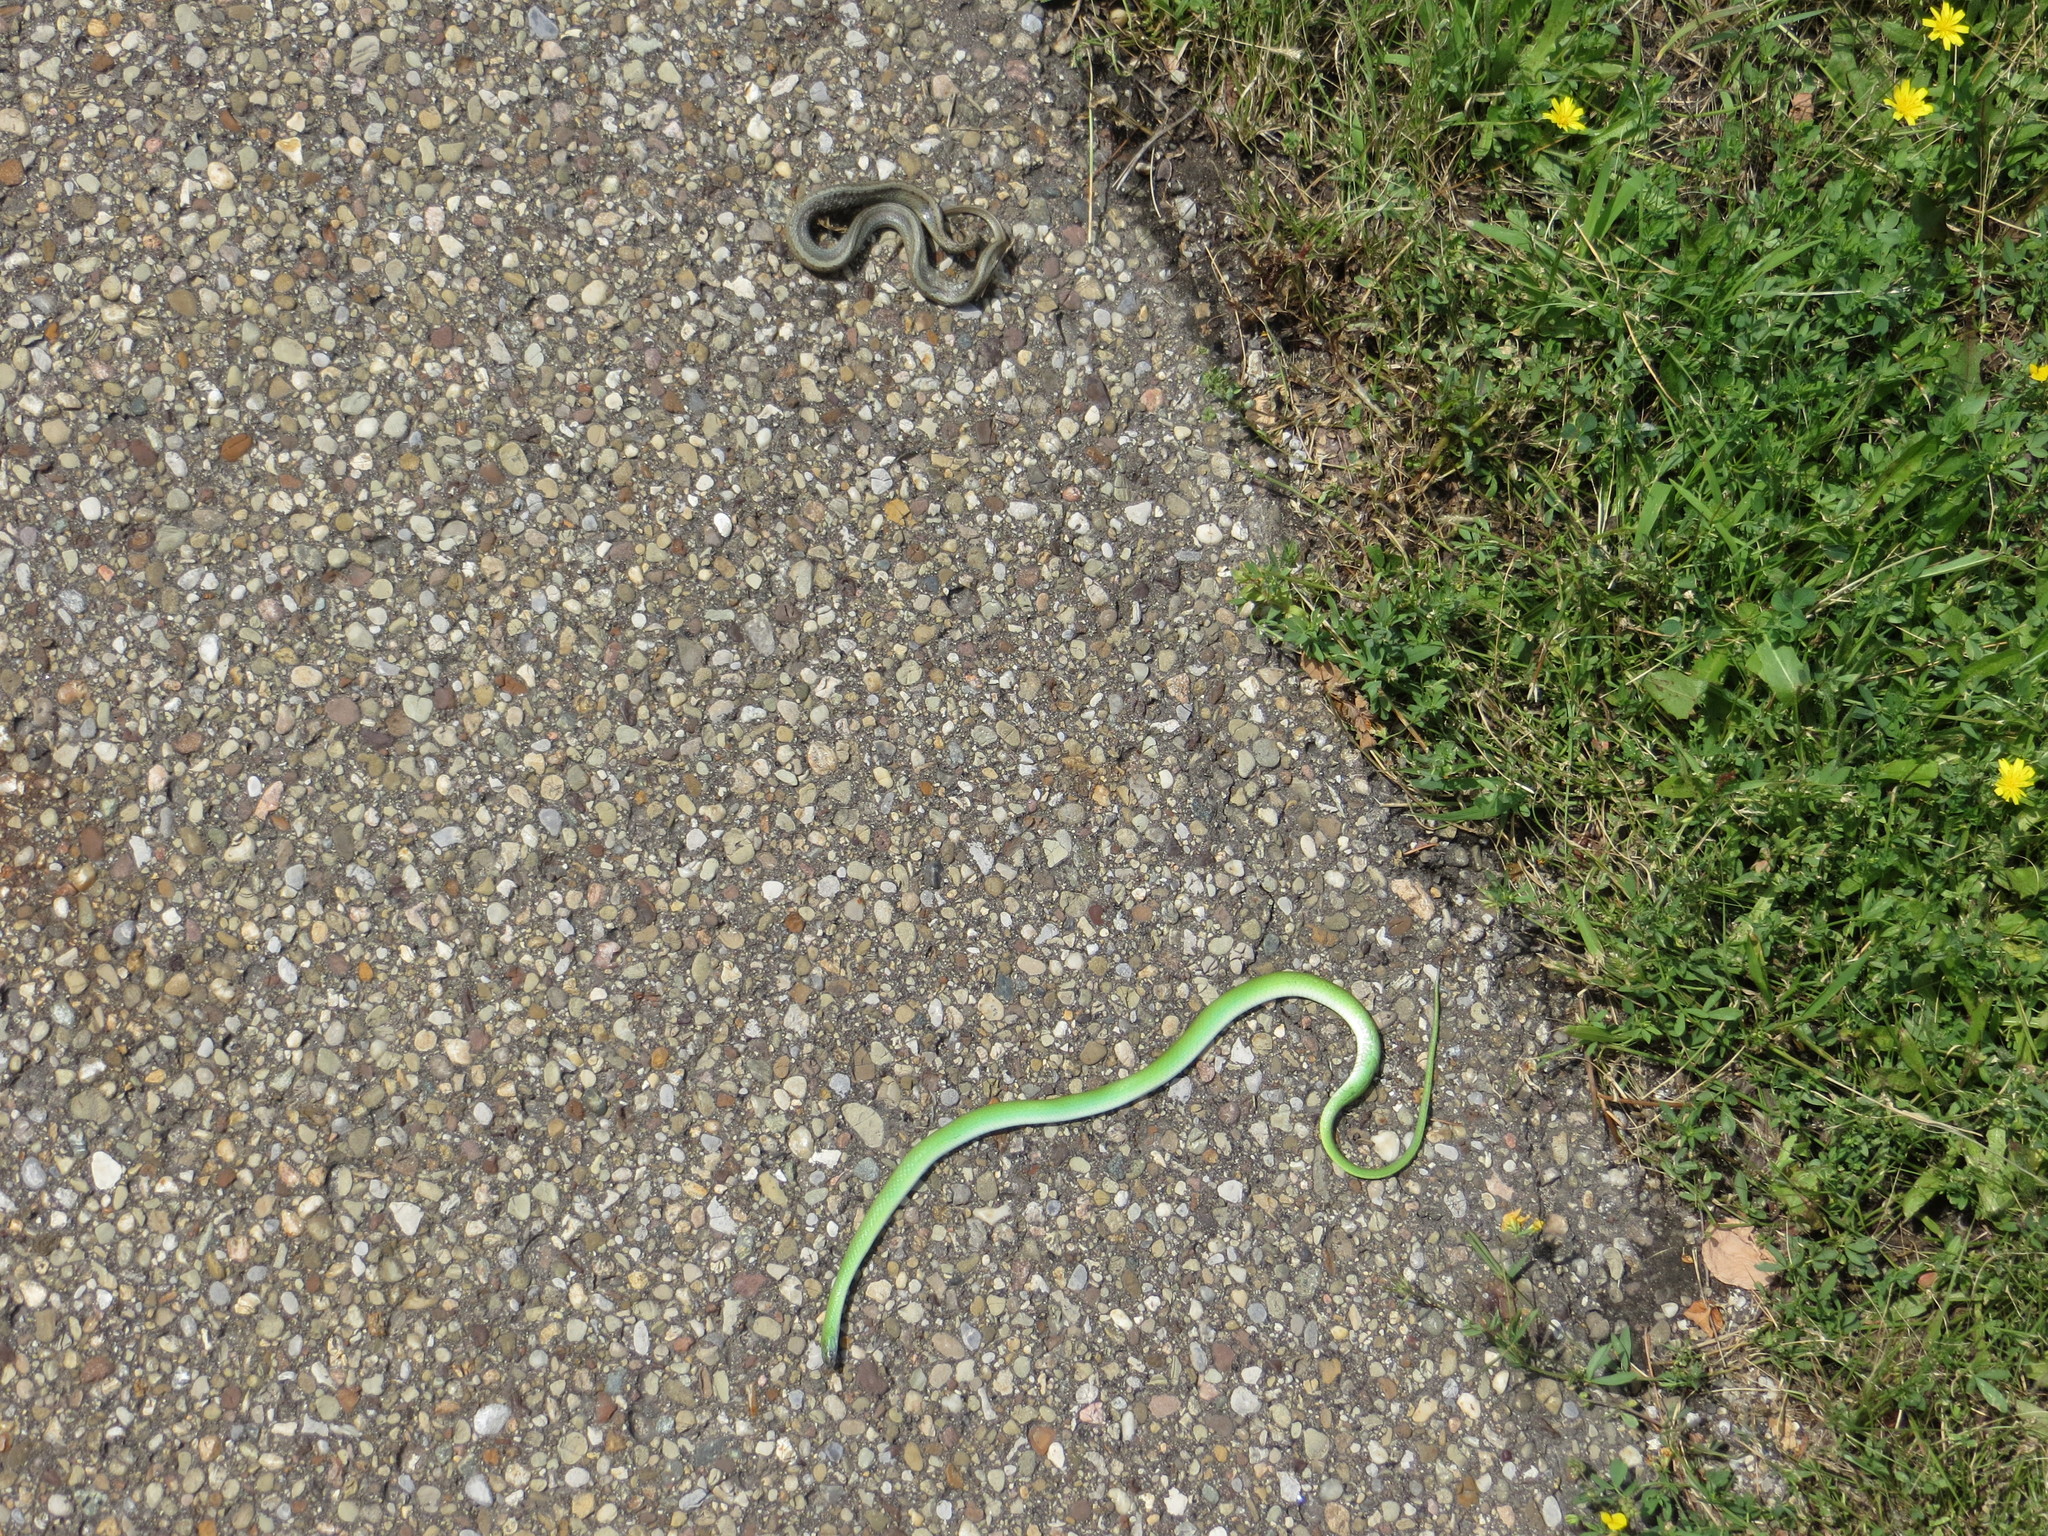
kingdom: Animalia
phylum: Chordata
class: Squamata
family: Colubridae
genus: Opheodrys
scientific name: Opheodrys vernalis
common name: Smooth green snake
